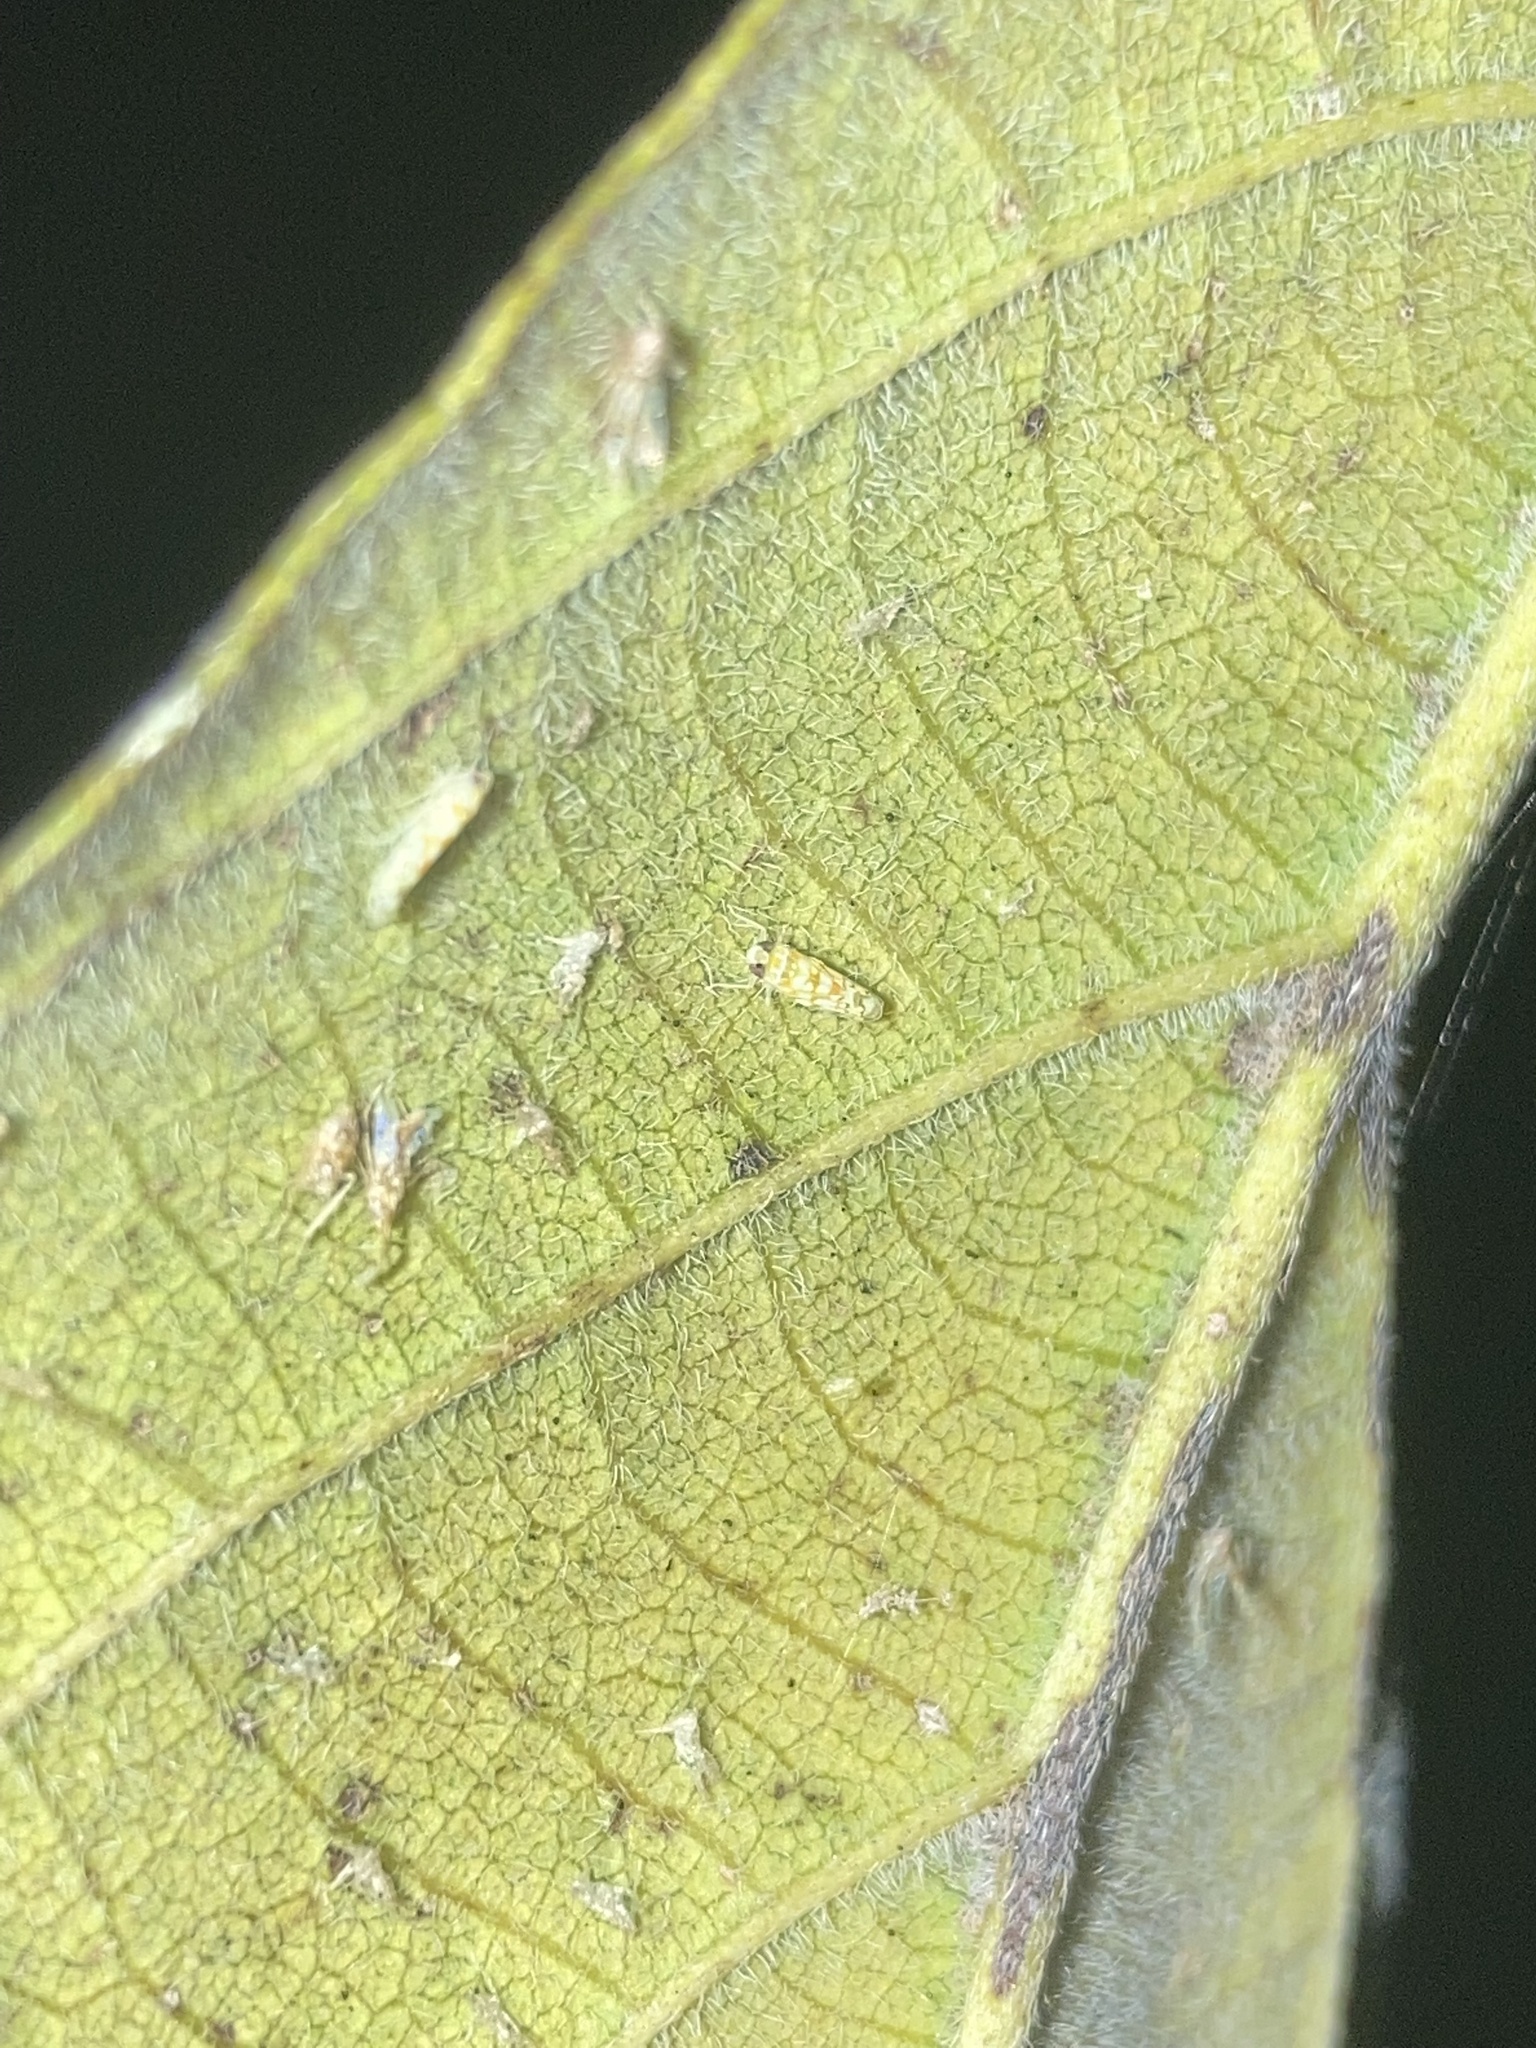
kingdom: Animalia
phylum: Arthropoda
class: Insecta
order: Hemiptera
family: Cicadellidae
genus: Protalebra
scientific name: Protalebra nexa
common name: Leafhopper
